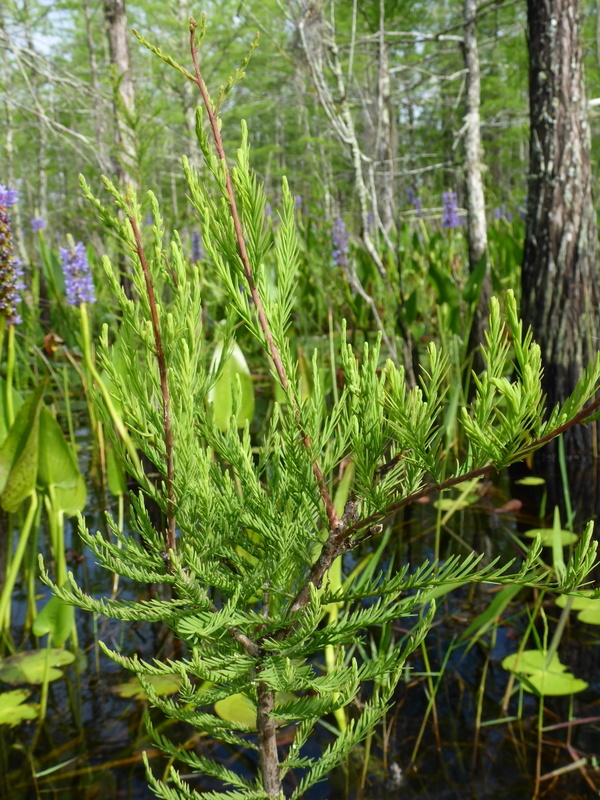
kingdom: Plantae
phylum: Tracheophyta
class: Pinopsida
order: Pinales
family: Cupressaceae
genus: Taxodium
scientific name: Taxodium distichum
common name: Bald cypress
